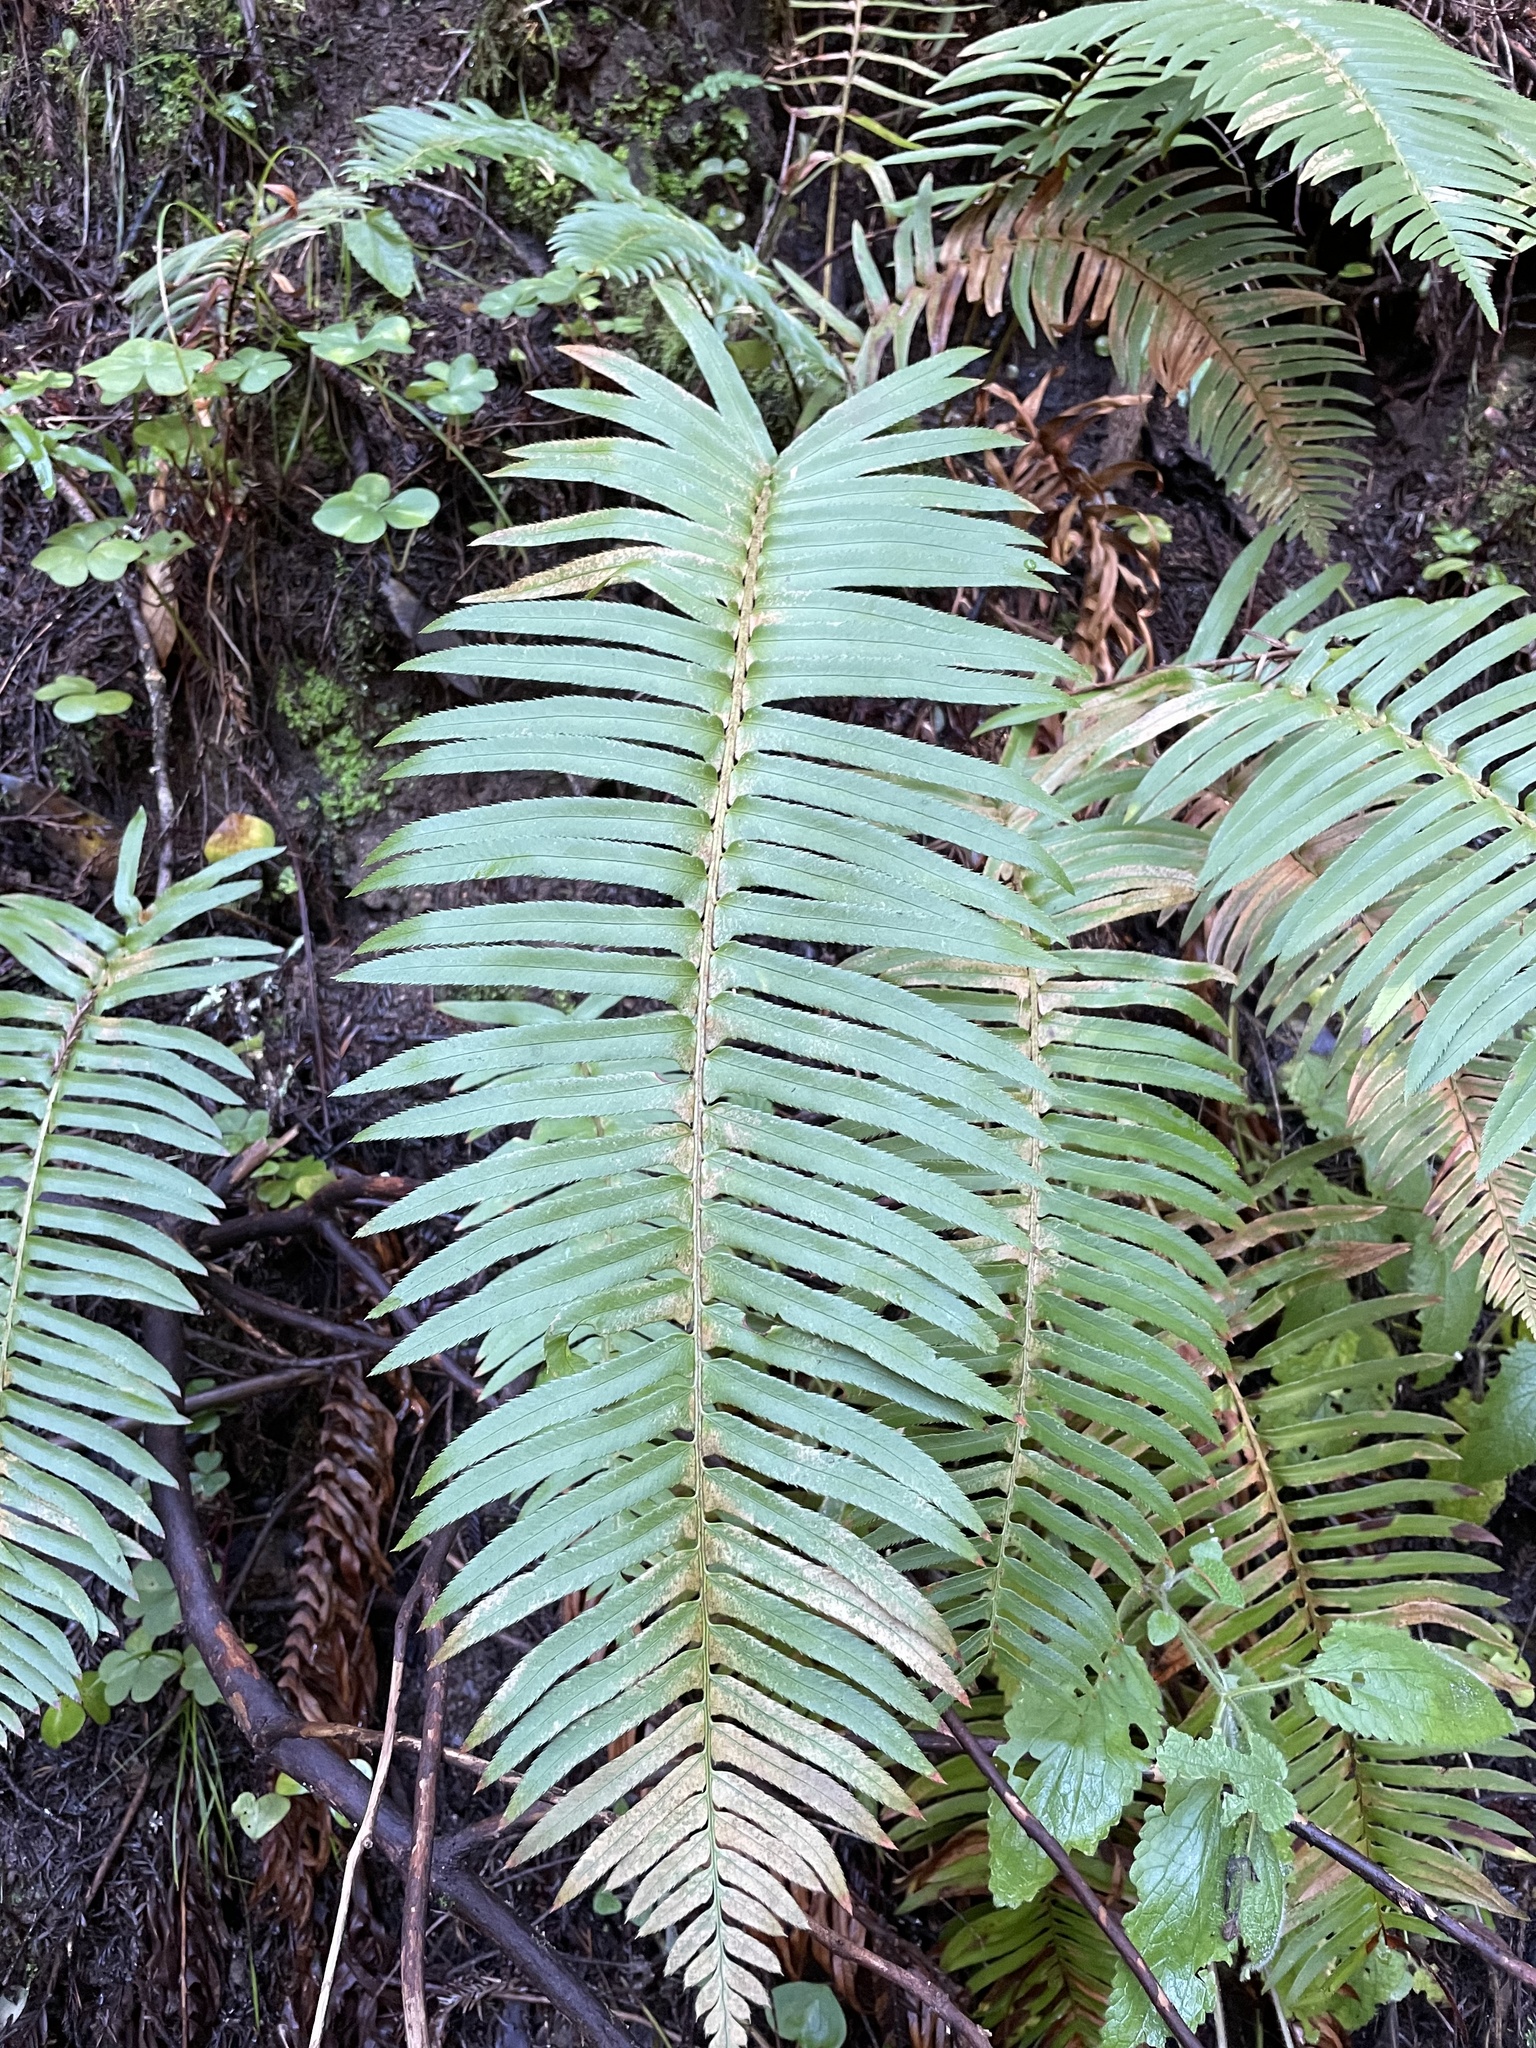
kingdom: Plantae
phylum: Tracheophyta
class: Polypodiopsida
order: Polypodiales
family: Dryopteridaceae
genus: Polystichum
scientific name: Polystichum munitum
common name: Western sword-fern
